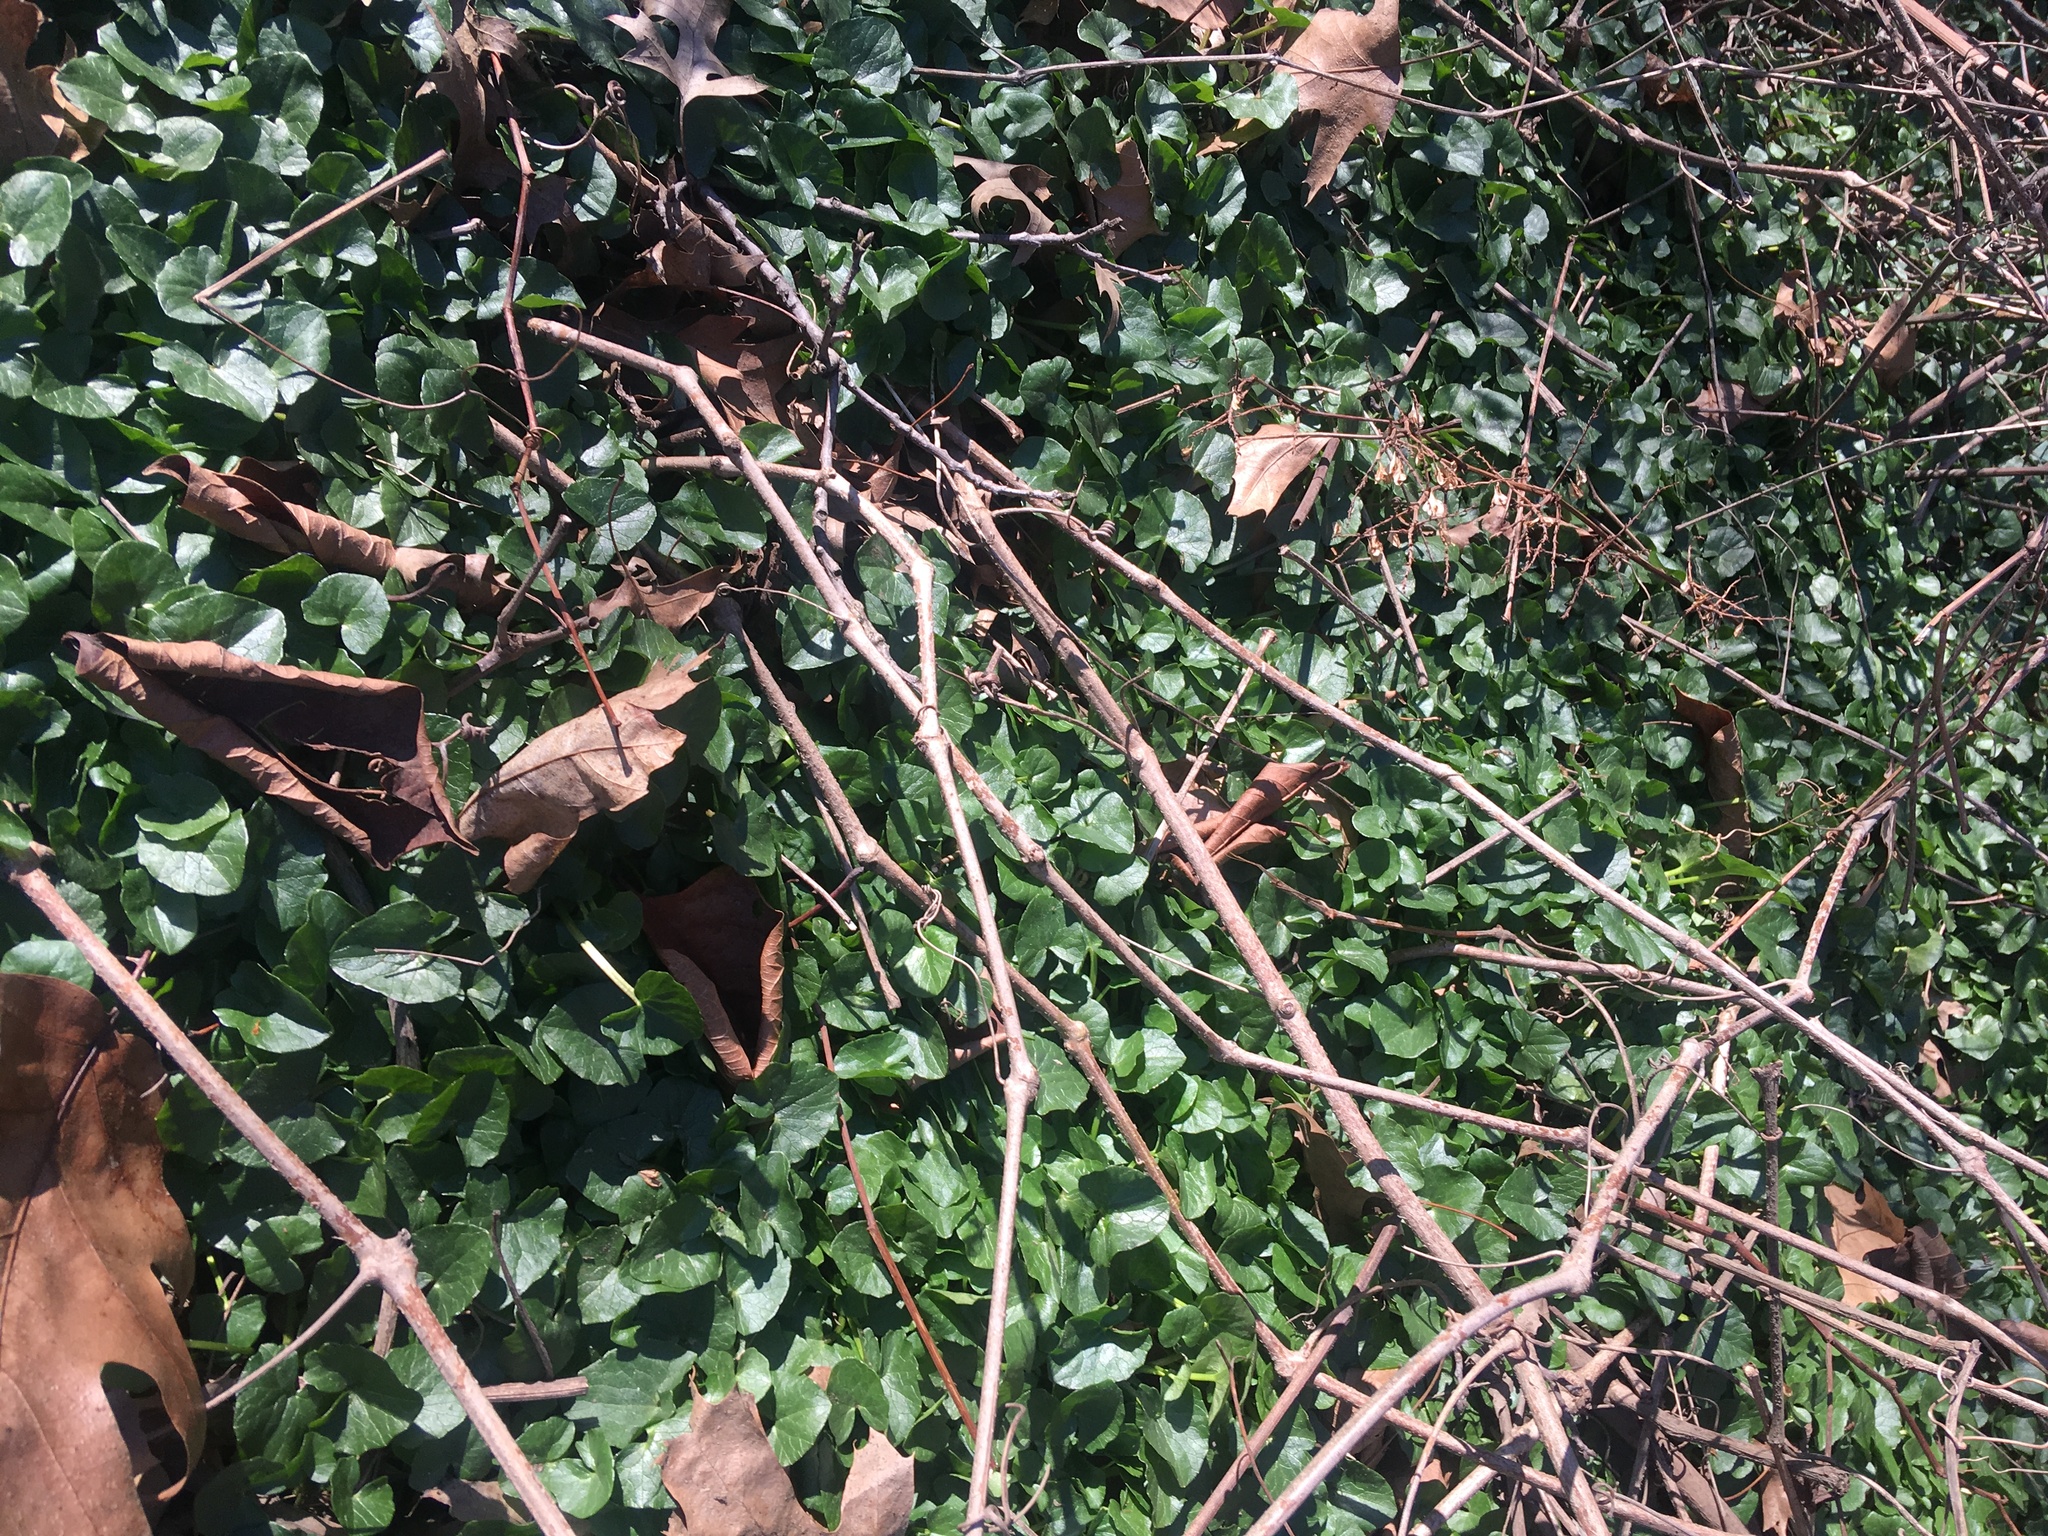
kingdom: Plantae
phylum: Tracheophyta
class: Magnoliopsida
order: Ranunculales
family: Ranunculaceae
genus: Ficaria
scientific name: Ficaria verna
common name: Lesser celandine
